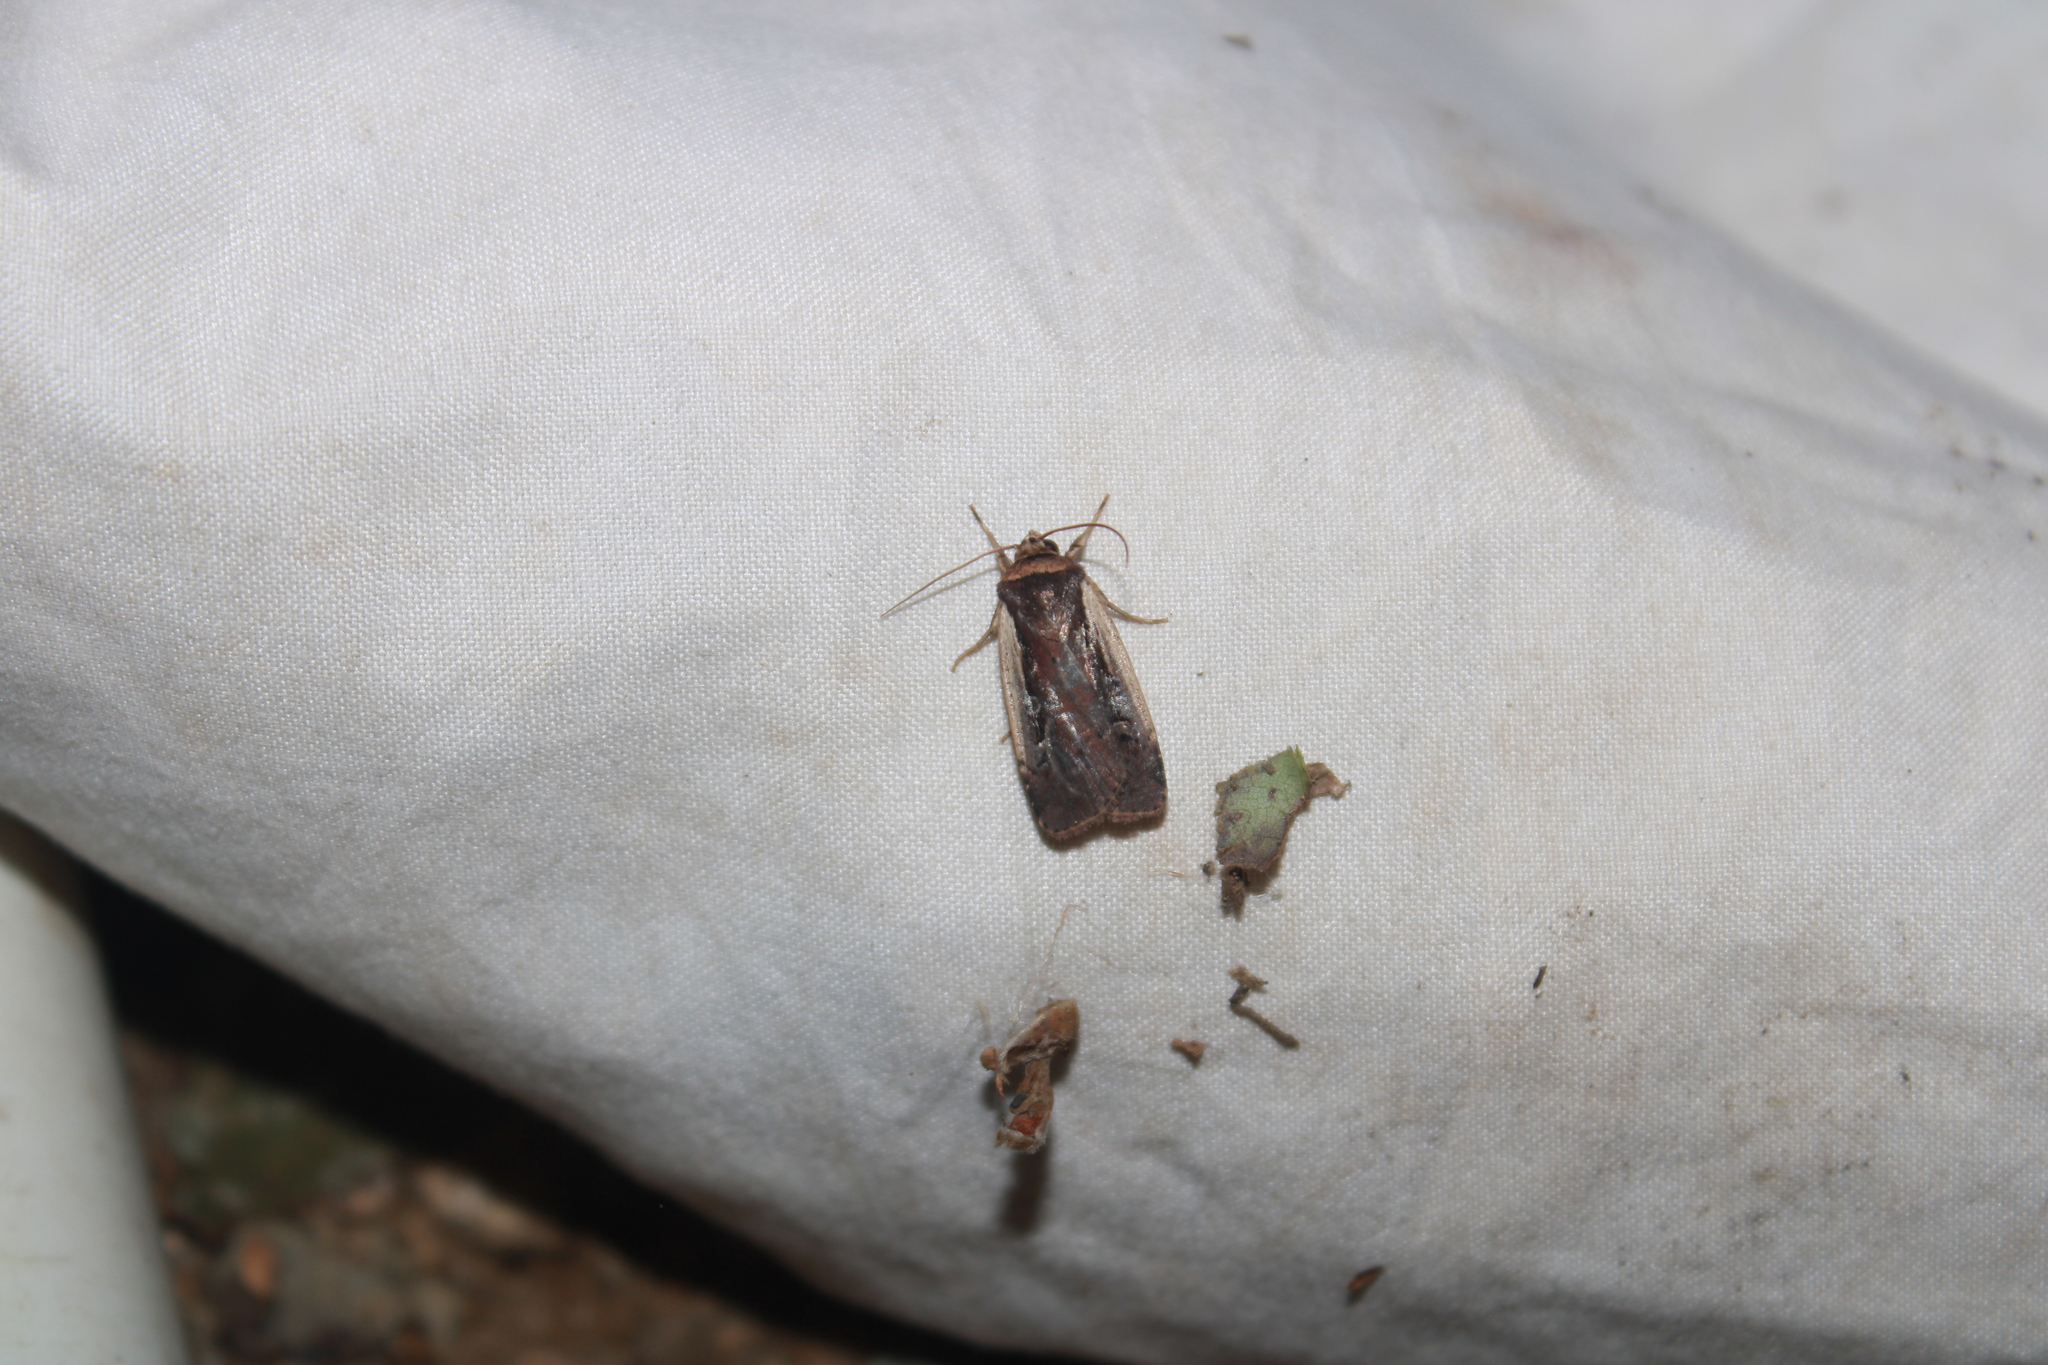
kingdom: Animalia
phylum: Arthropoda
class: Insecta
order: Lepidoptera
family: Noctuidae
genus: Ochropleura
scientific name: Ochropleura implecta
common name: Flame-shouldered dart
